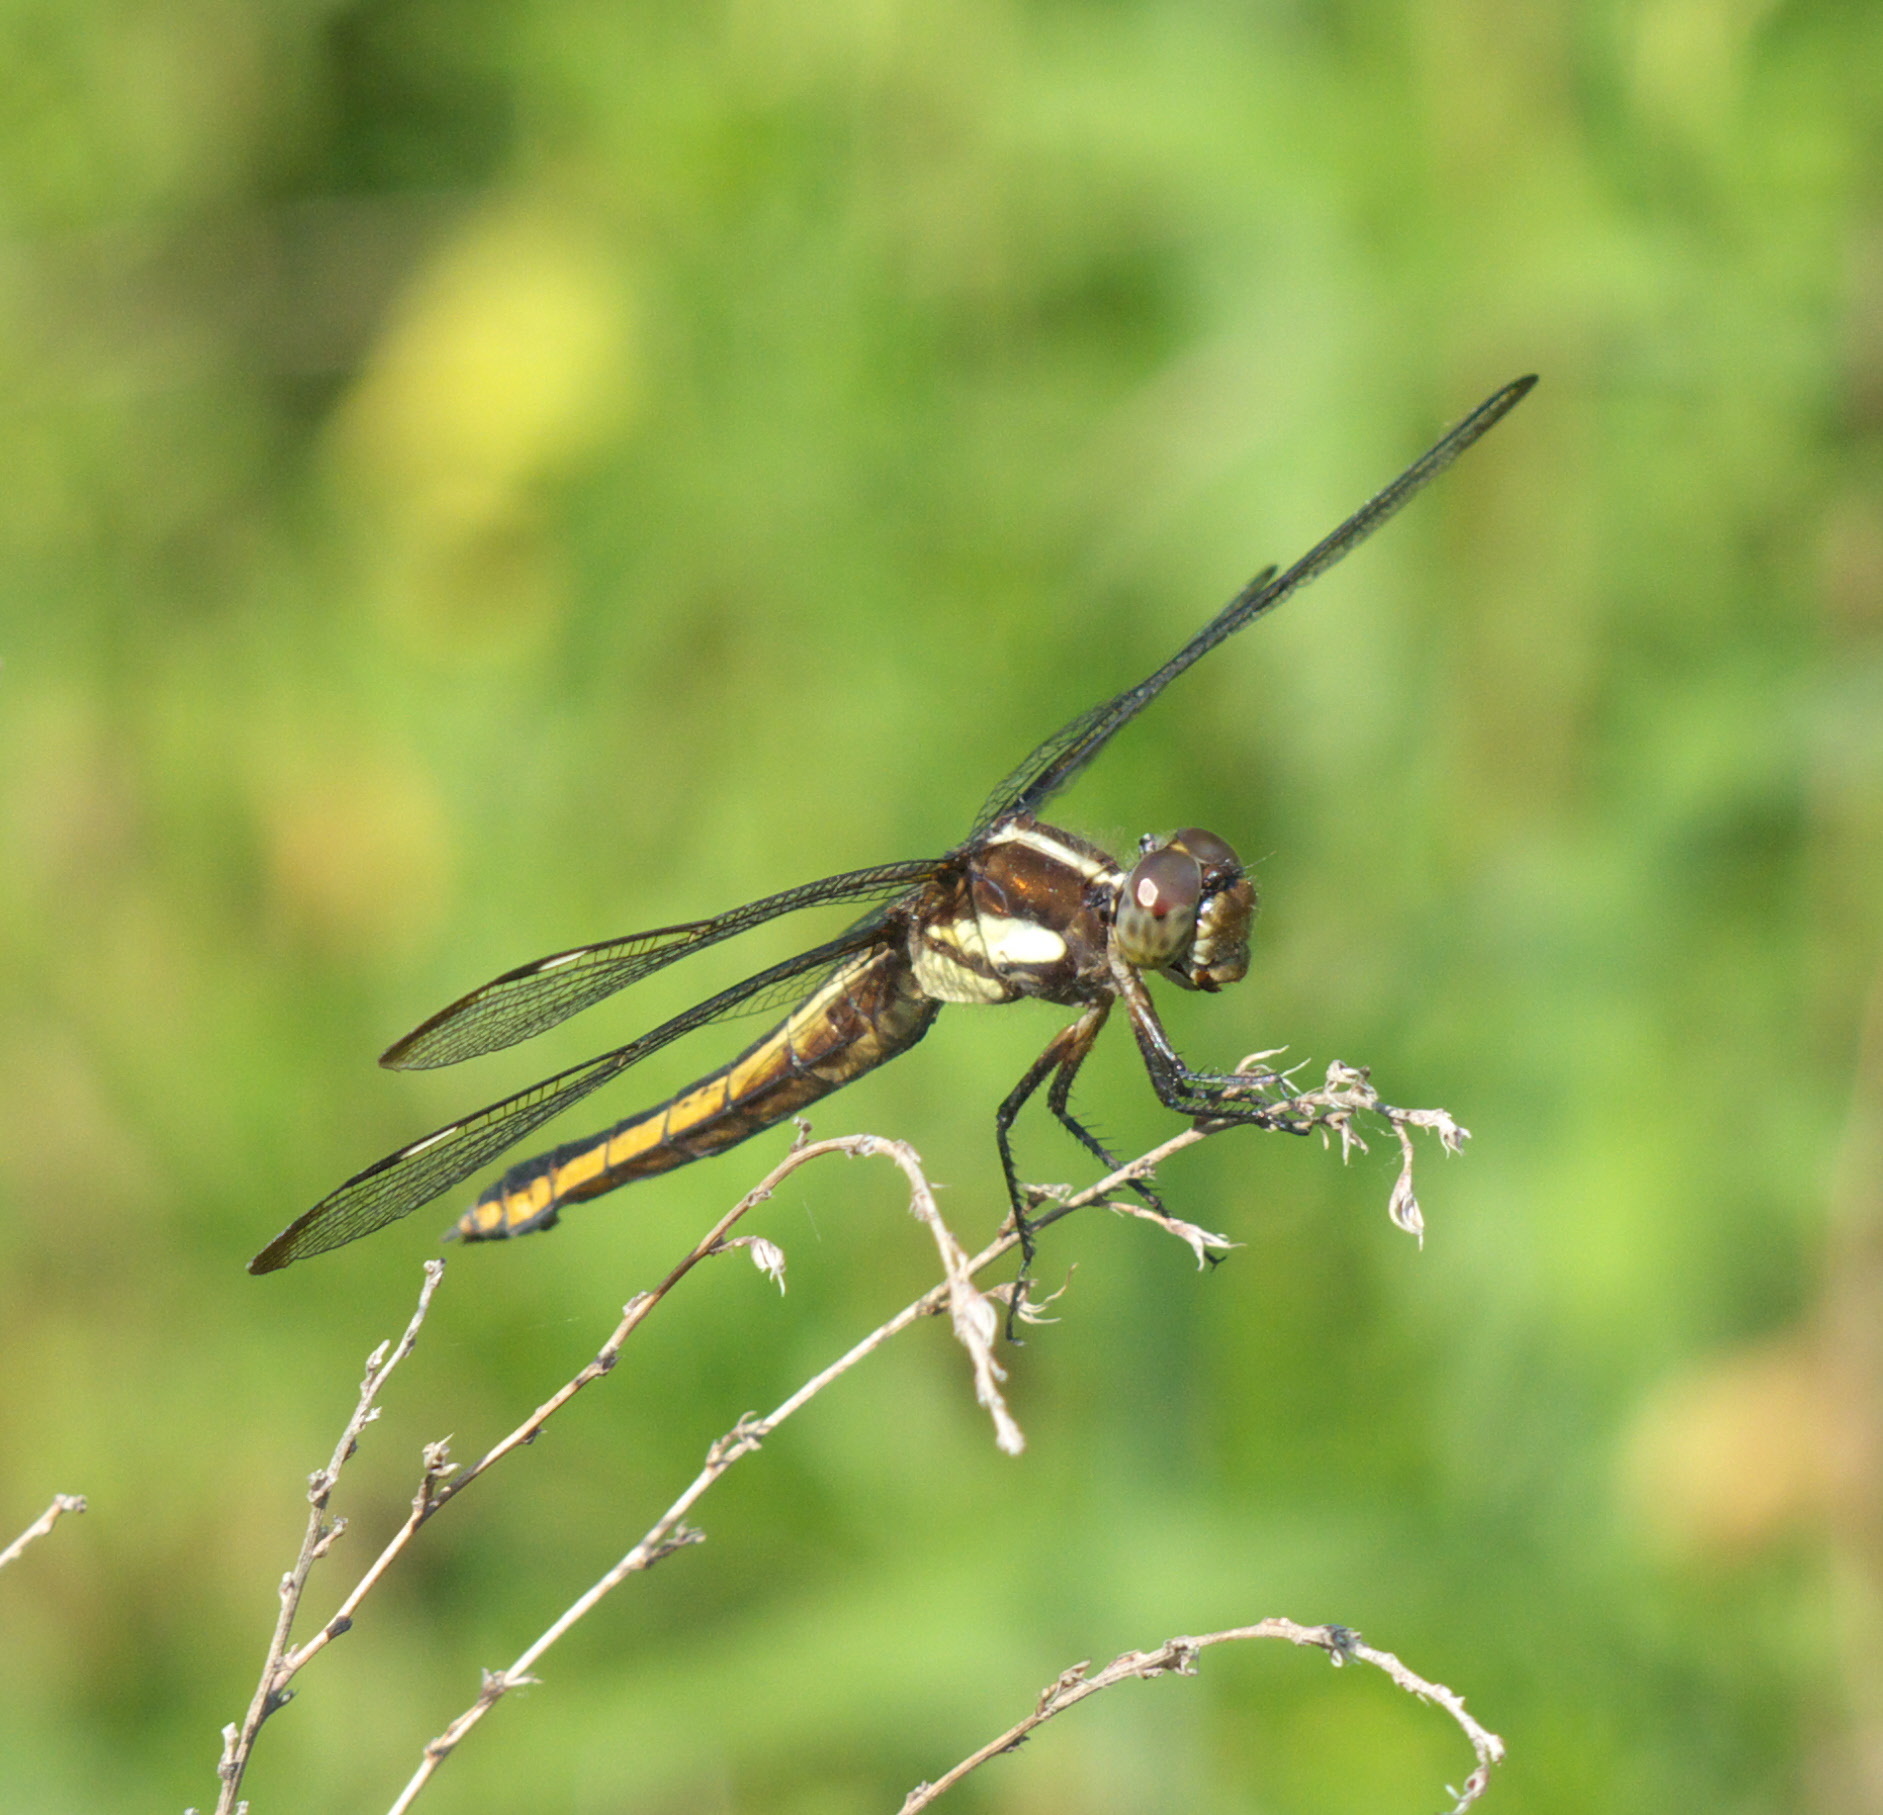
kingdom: Animalia
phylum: Arthropoda
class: Insecta
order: Odonata
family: Libellulidae
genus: Libellula
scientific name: Libellula cyanea
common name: Spangled skimmer
